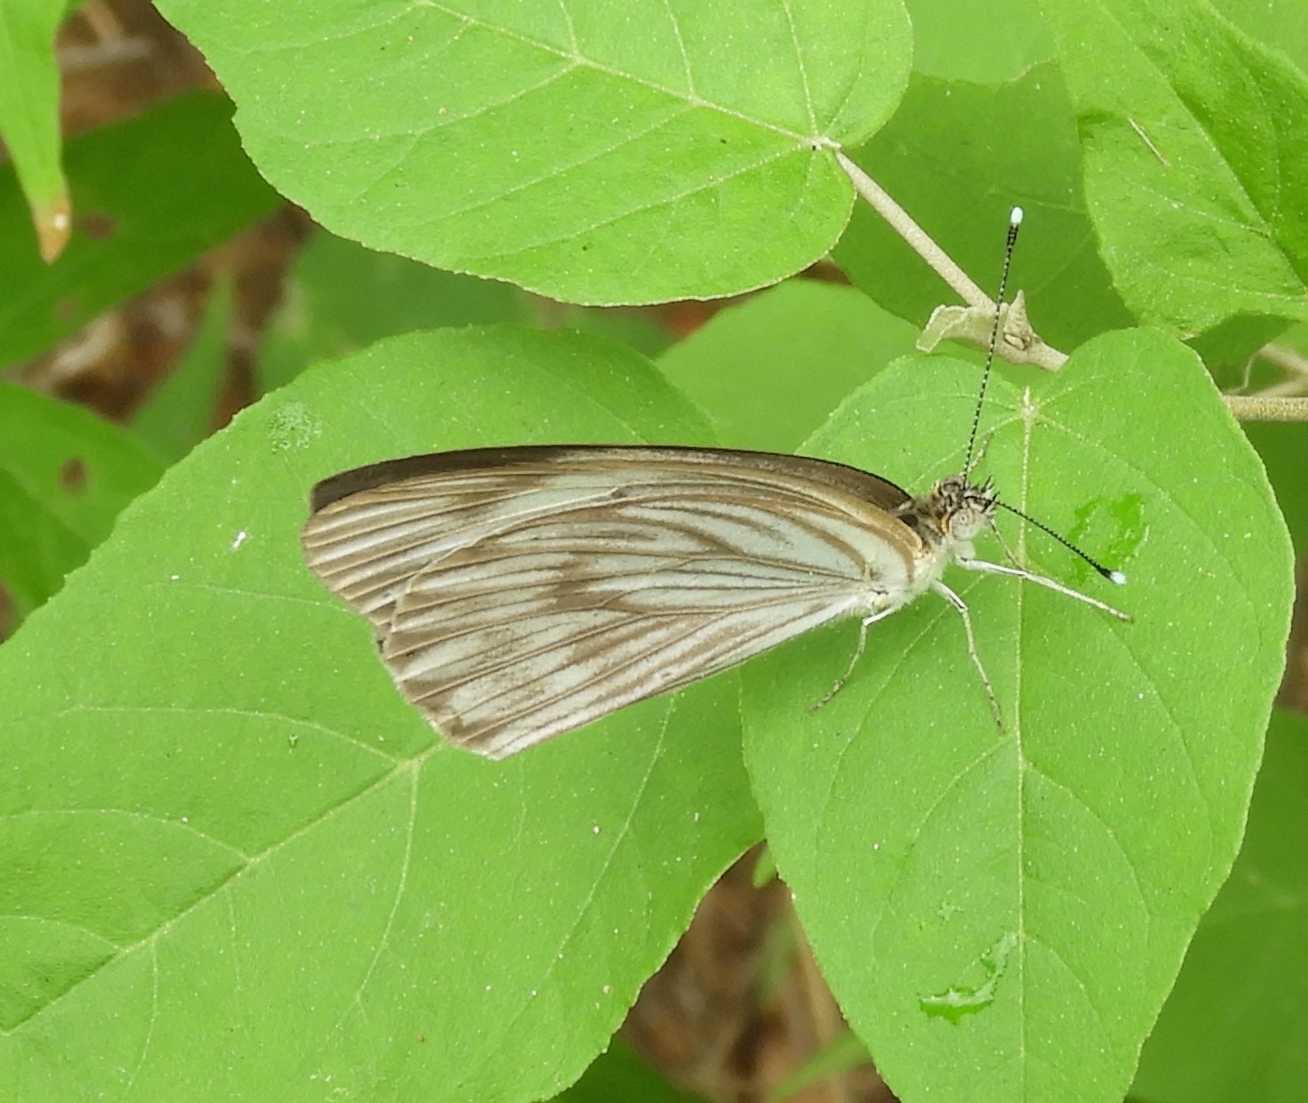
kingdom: Animalia
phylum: Arthropoda
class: Insecta
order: Lepidoptera
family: Pieridae
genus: Ascia
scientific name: Ascia monuste
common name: Great southern white
